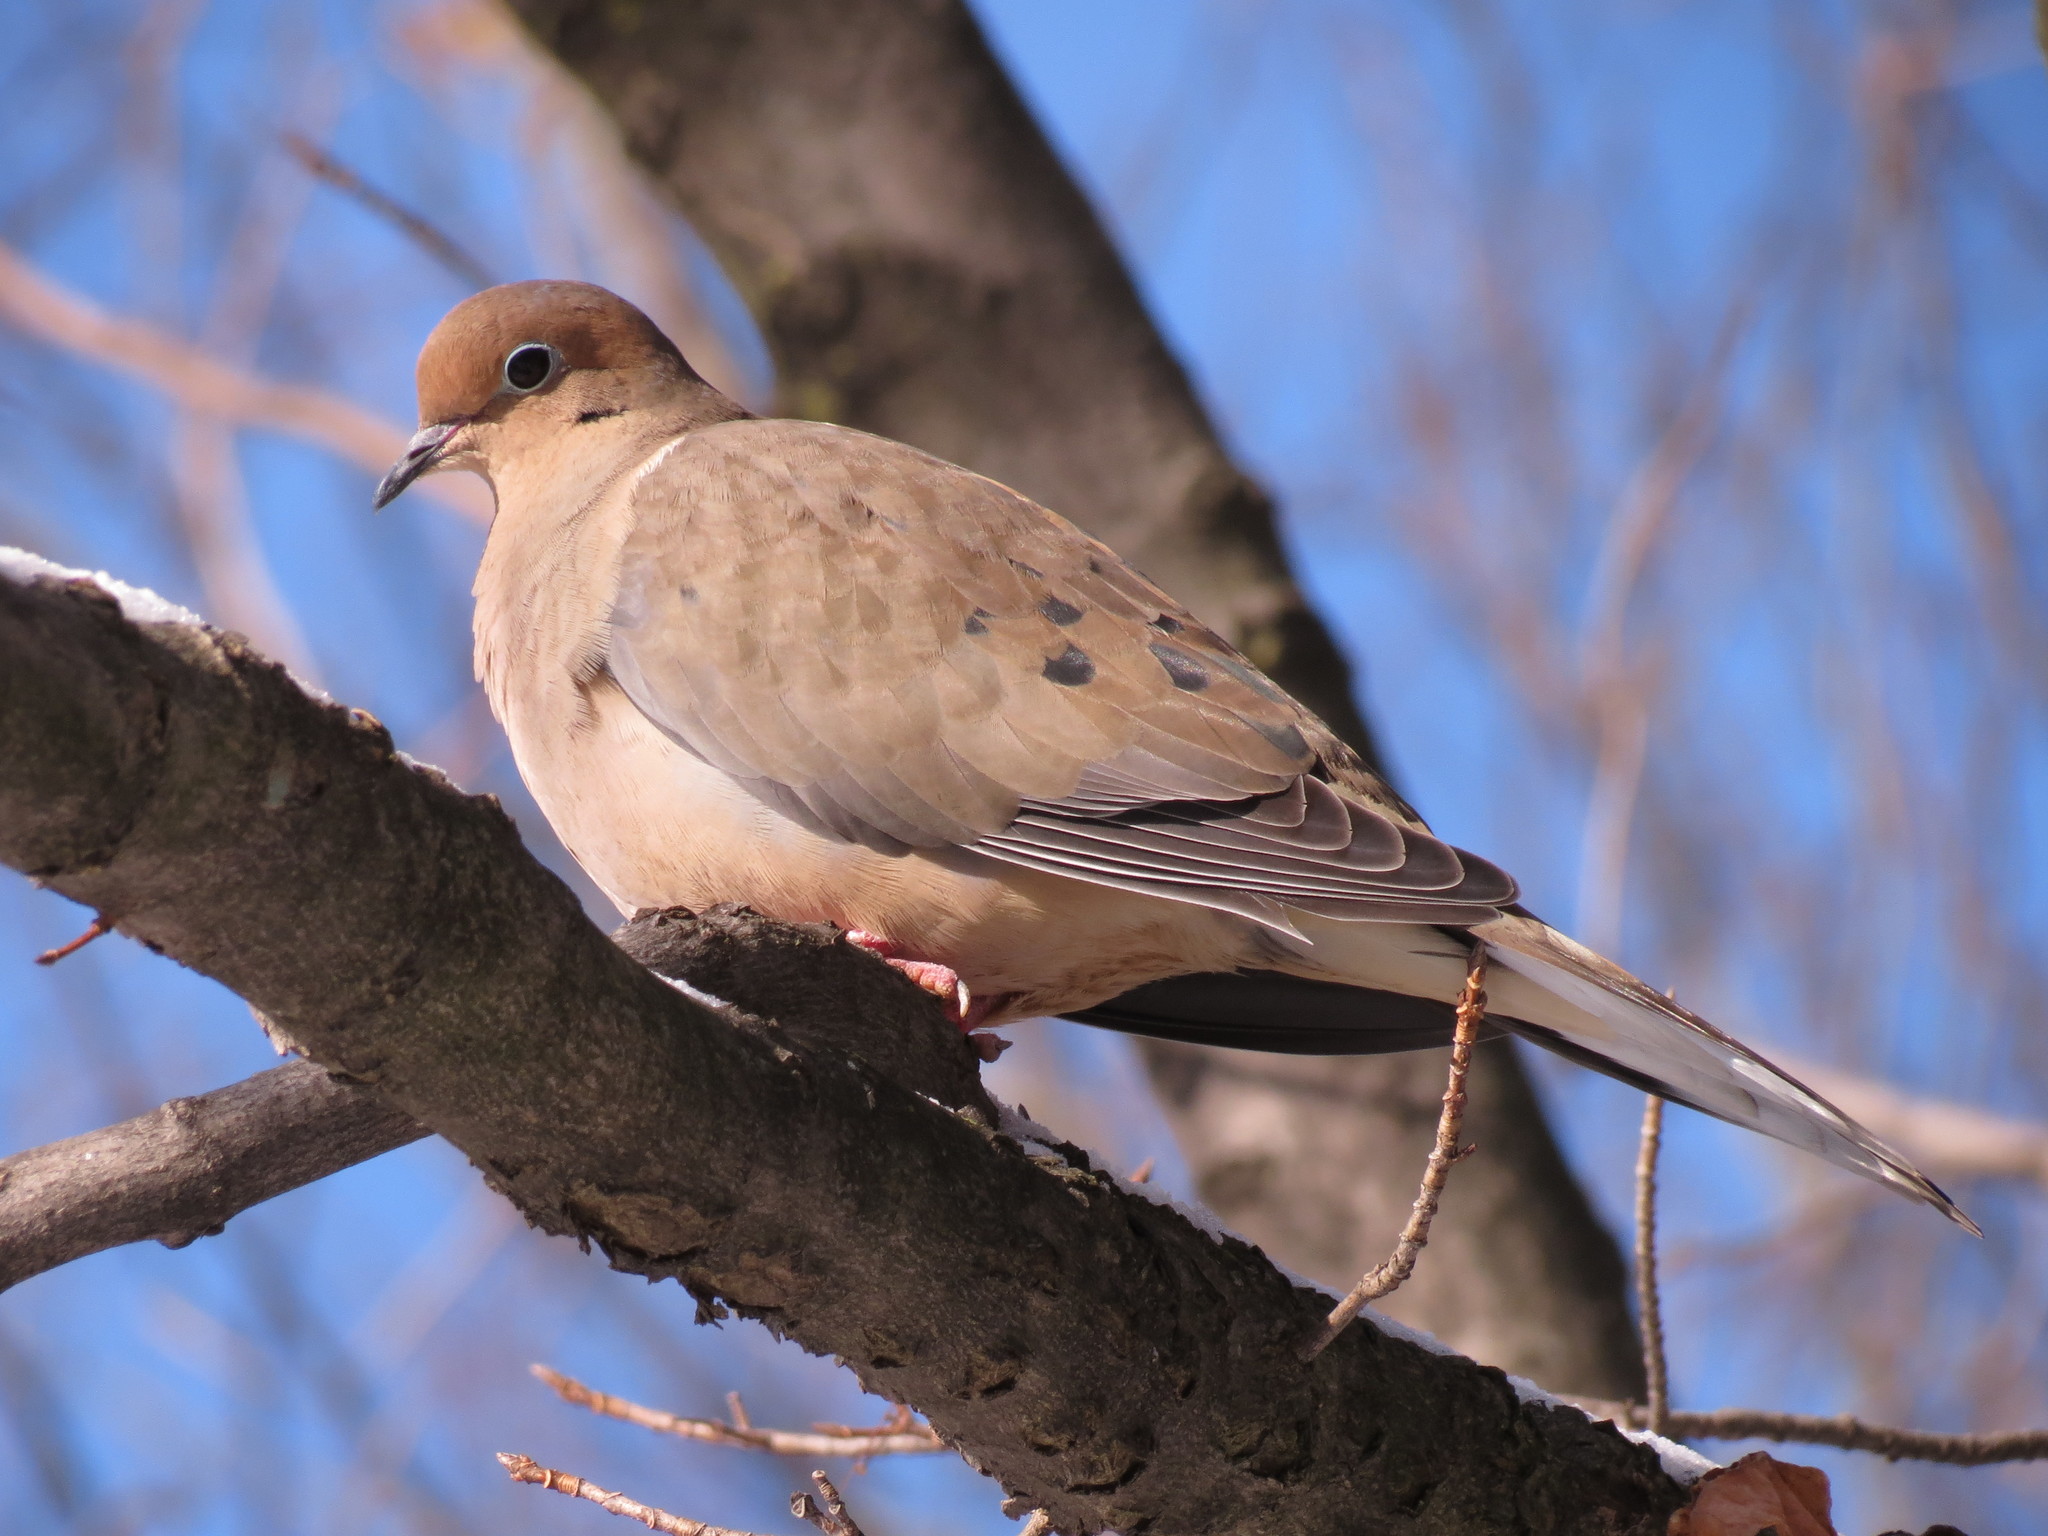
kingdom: Animalia
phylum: Chordata
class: Aves
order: Columbiformes
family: Columbidae
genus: Zenaida
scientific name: Zenaida macroura
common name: Mourning dove
